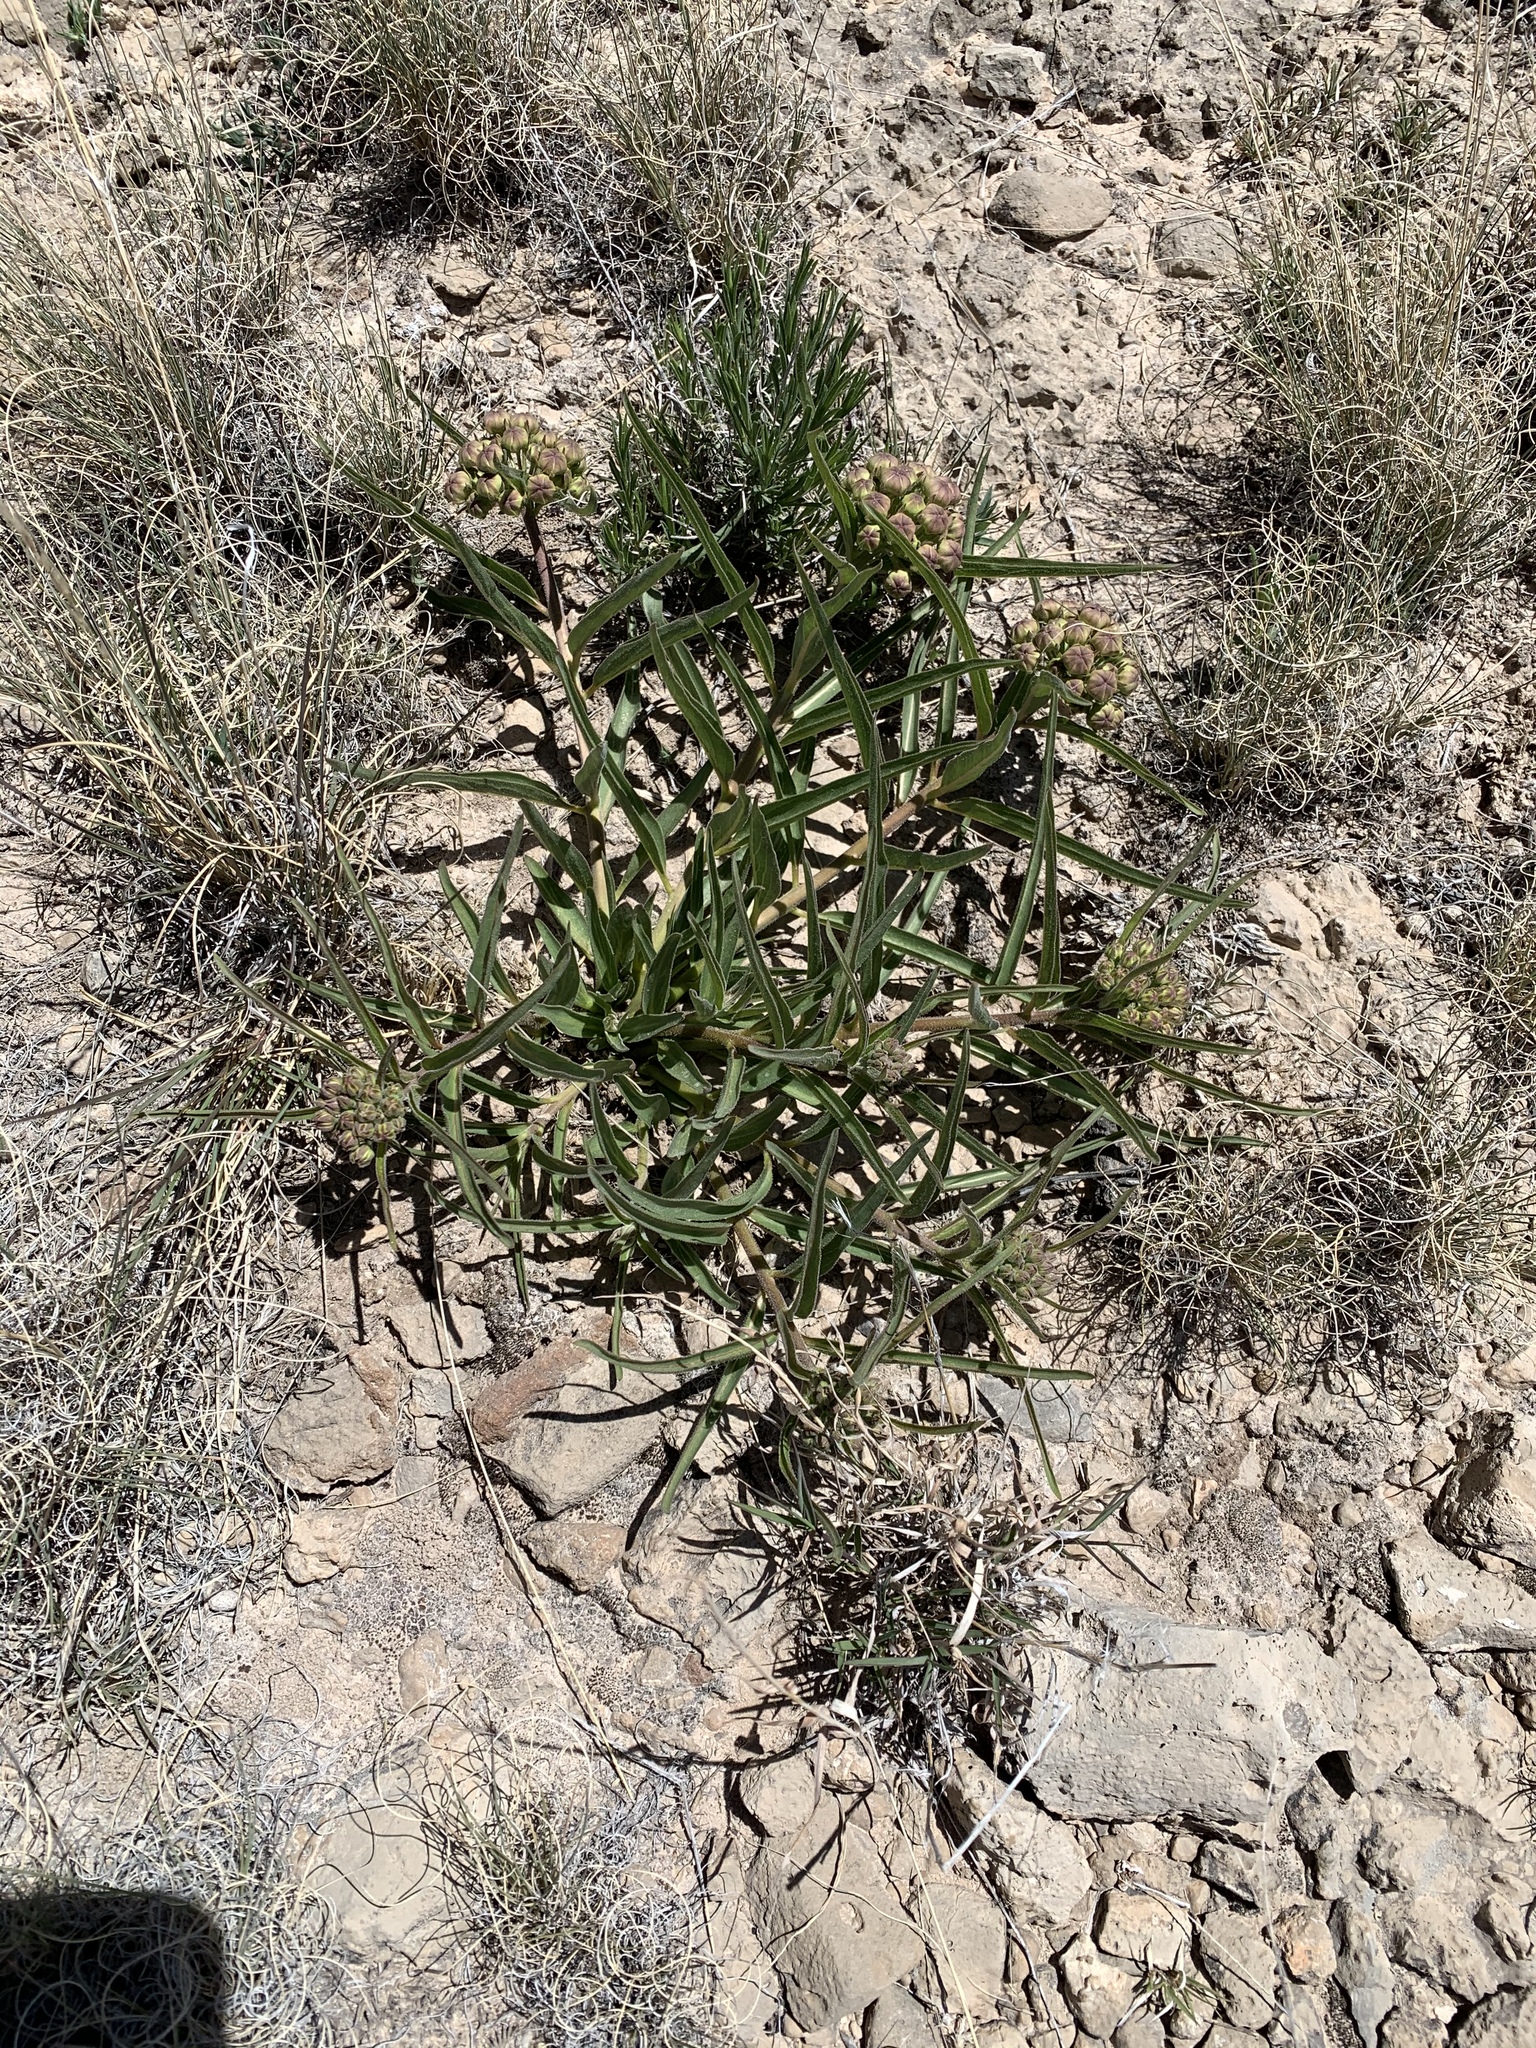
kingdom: Plantae
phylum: Tracheophyta
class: Magnoliopsida
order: Gentianales
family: Apocynaceae
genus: Asclepias
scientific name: Asclepias asperula
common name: Antelope horns
